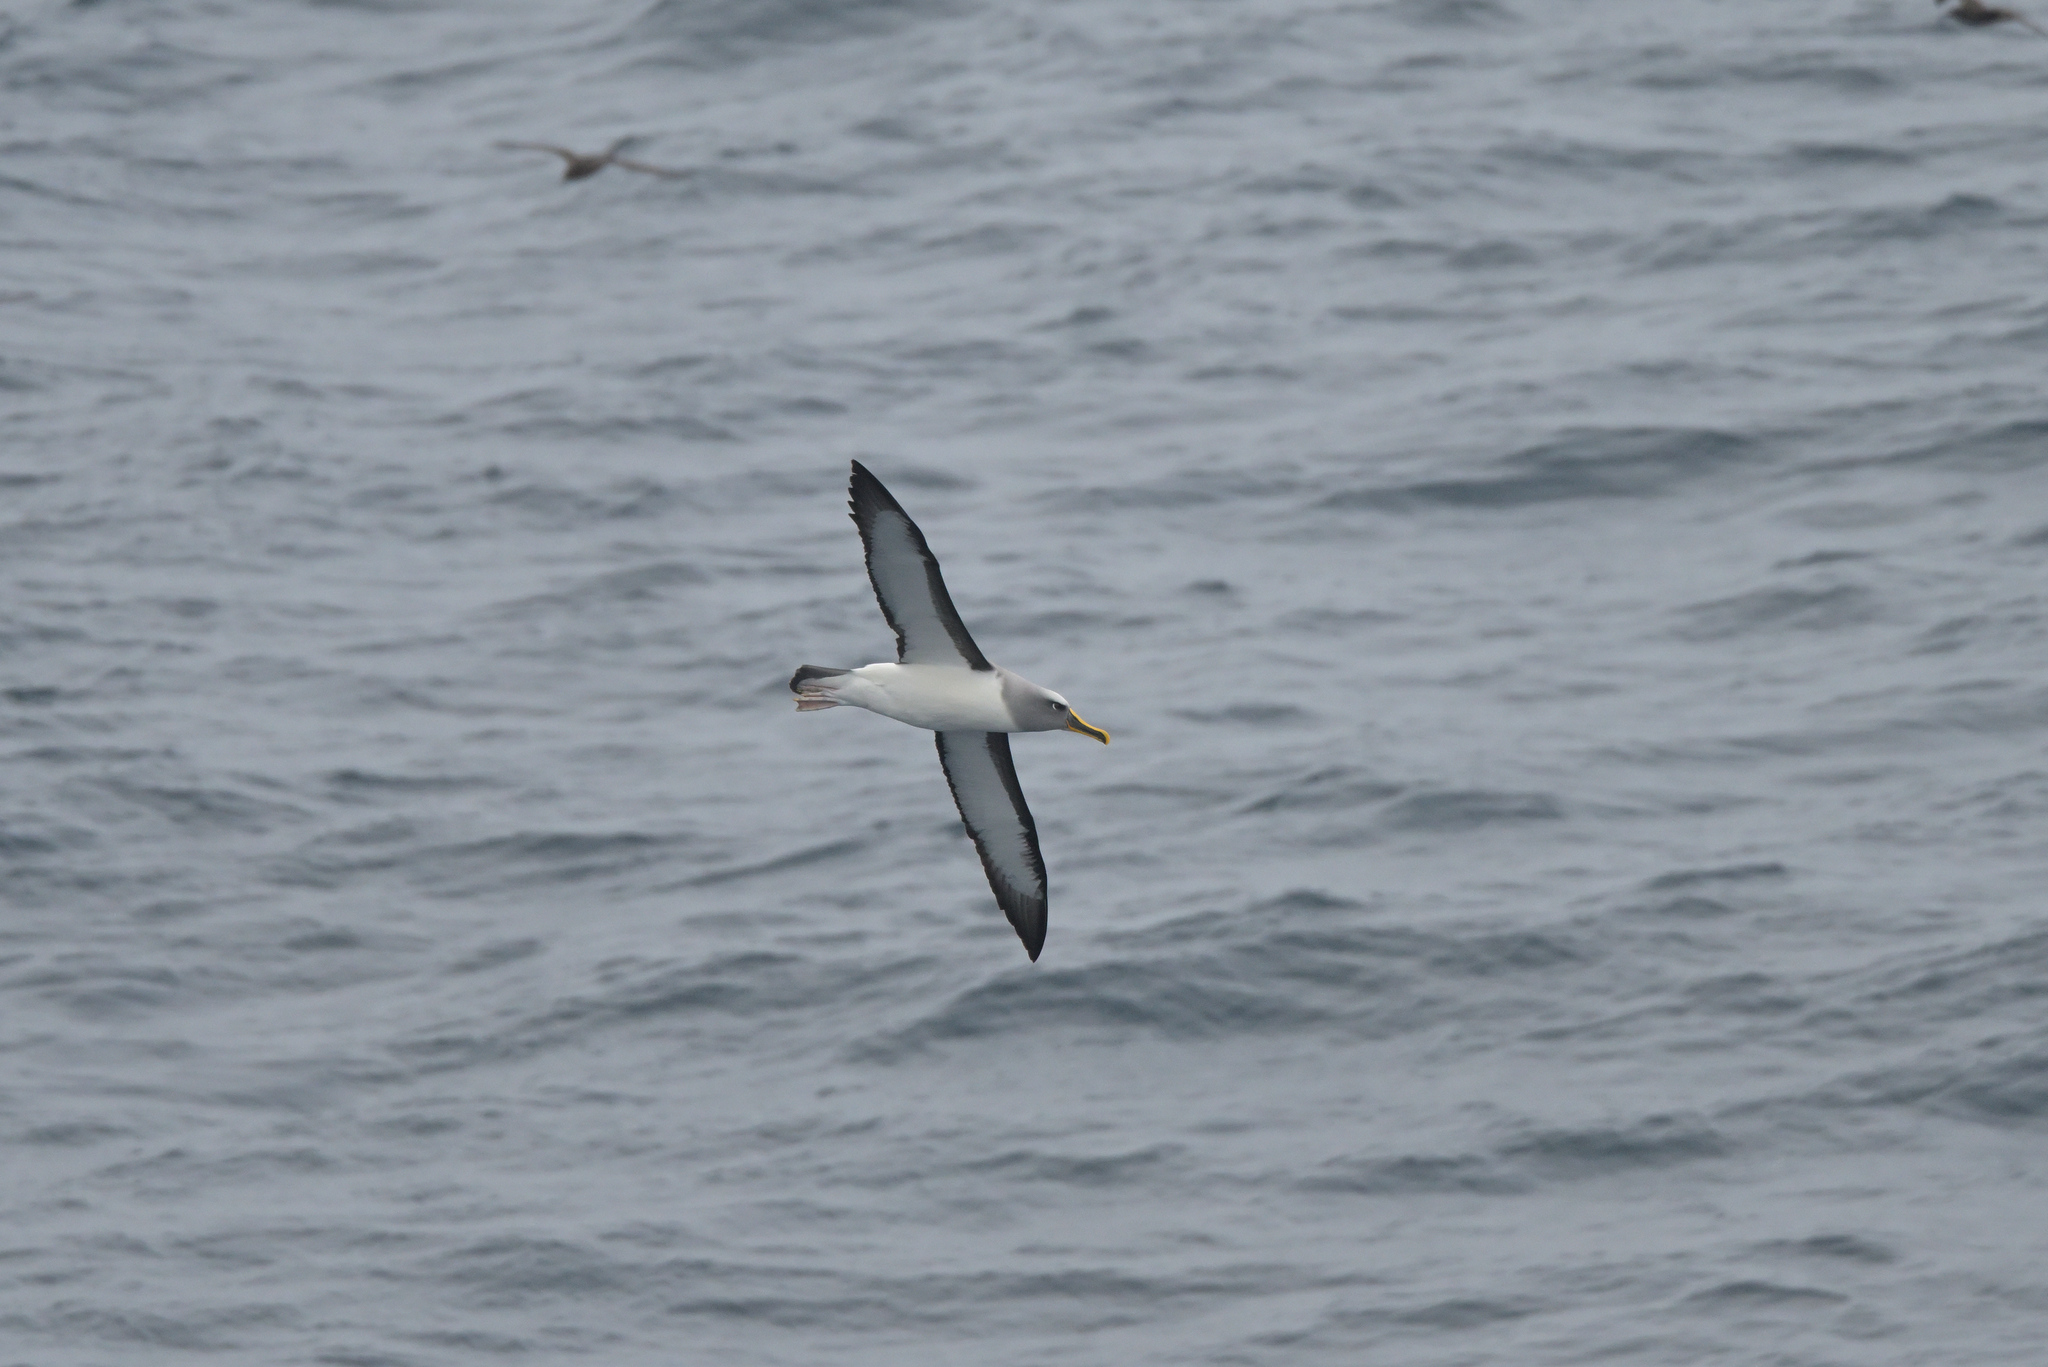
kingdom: Animalia
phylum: Chordata
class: Aves
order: Procellariiformes
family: Diomedeidae
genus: Thalassarche
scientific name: Thalassarche bulleri
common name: Buller's albatross
